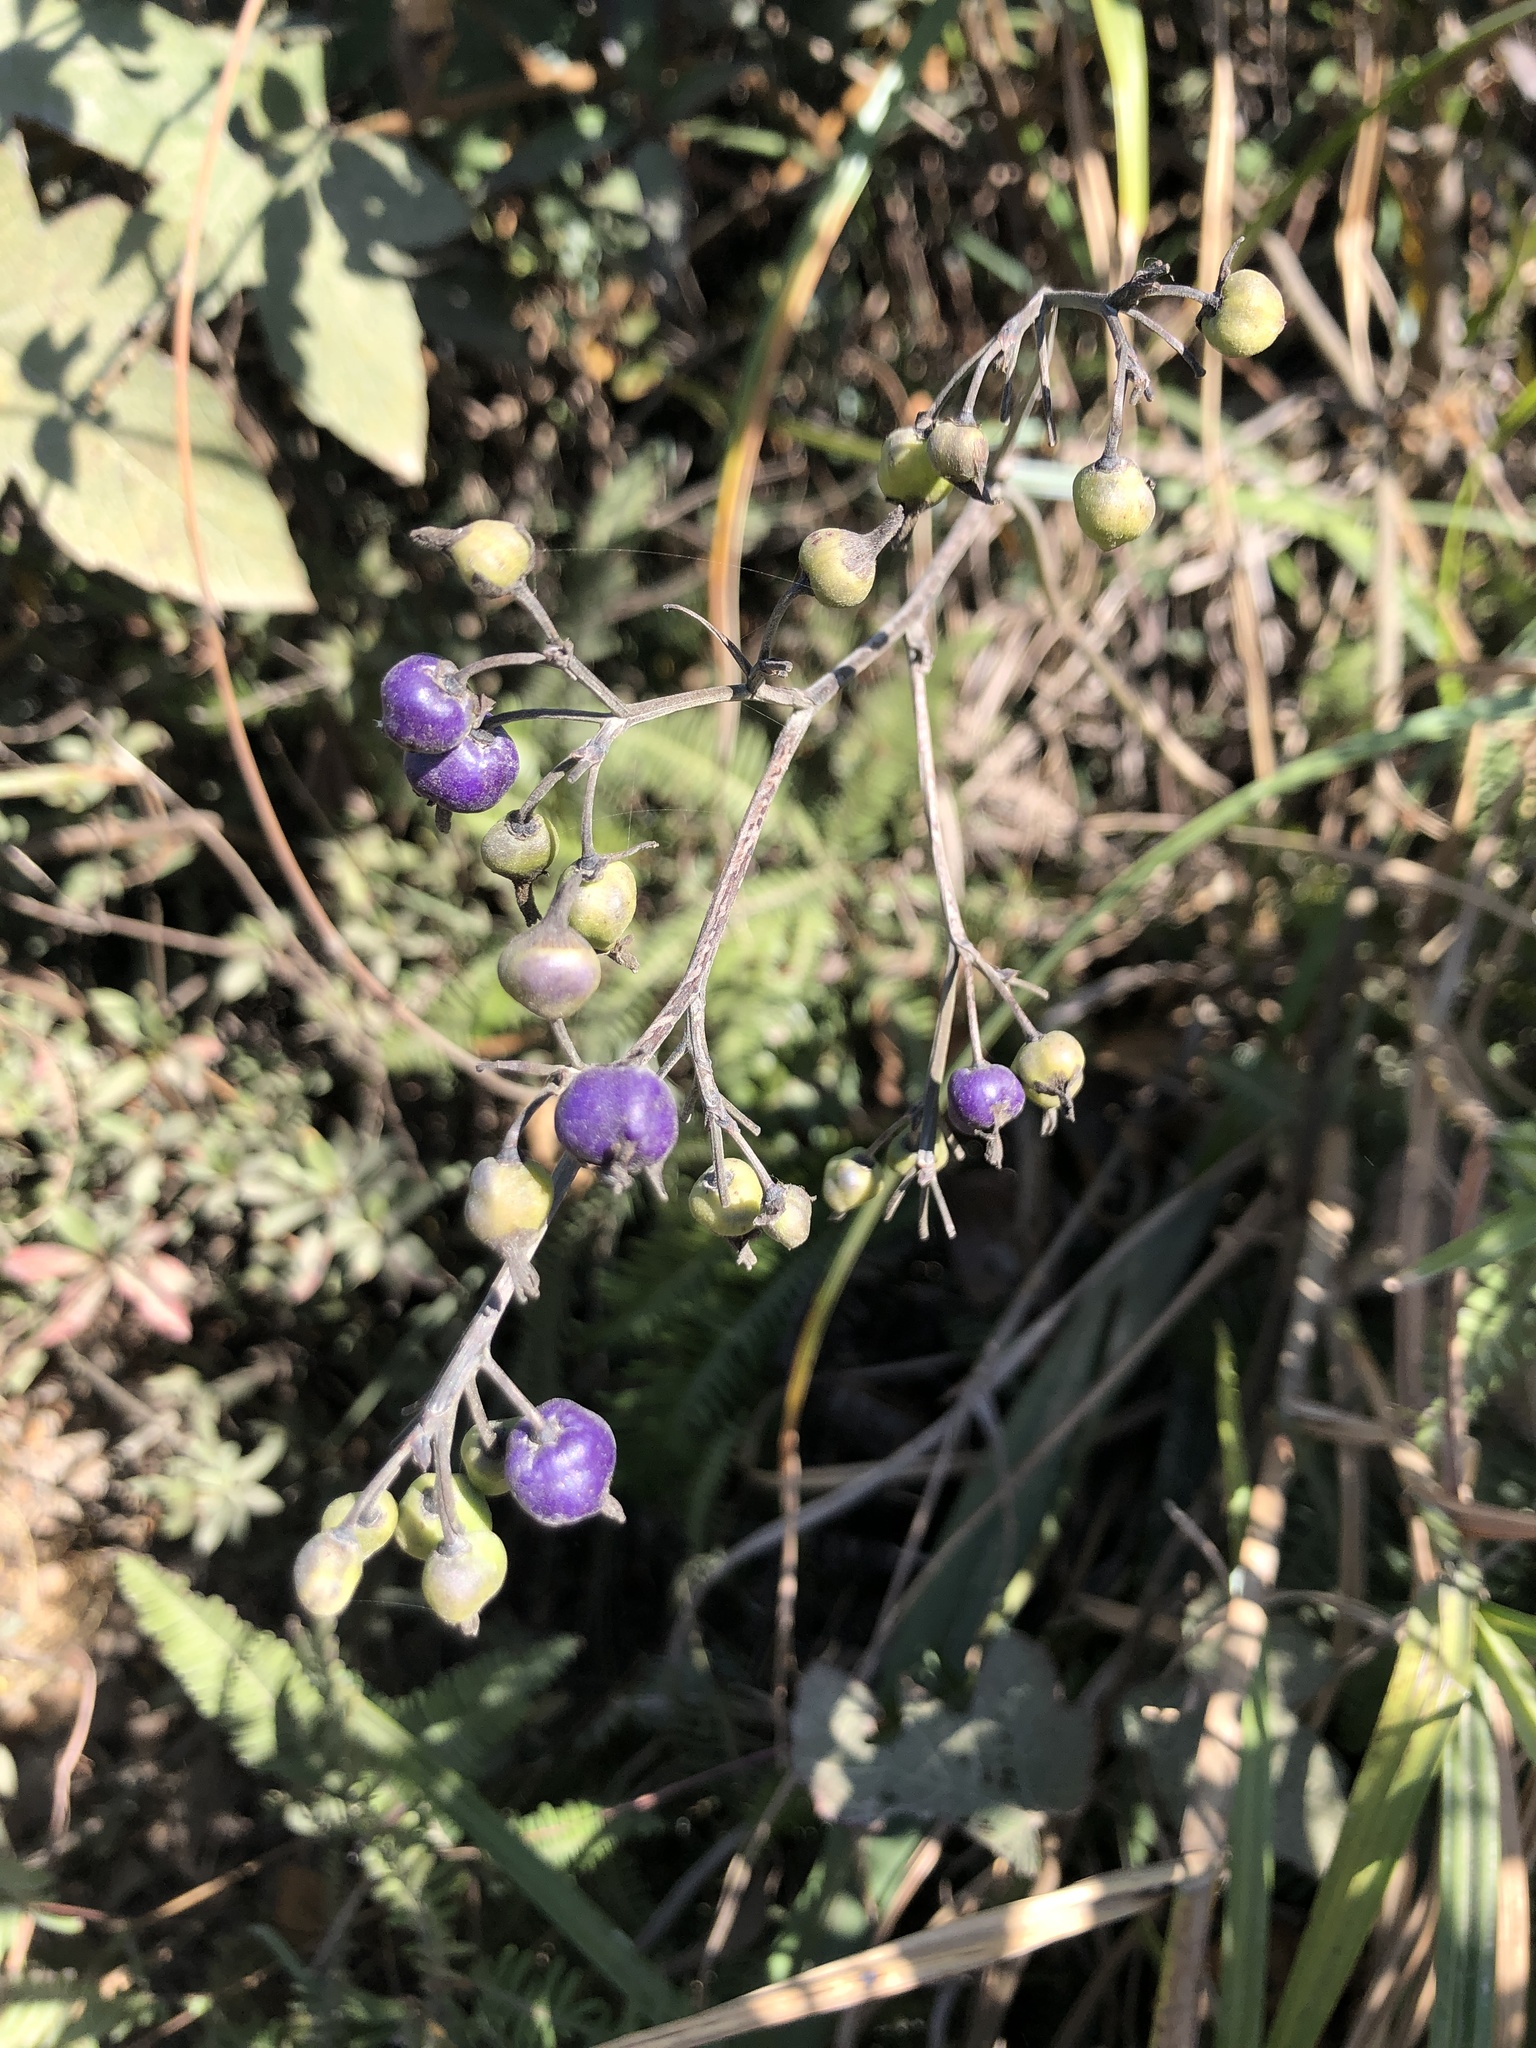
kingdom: Plantae
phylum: Tracheophyta
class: Liliopsida
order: Asparagales
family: Asphodelaceae
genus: Dianella
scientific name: Dianella ensifolia
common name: New zealand lilyplant
